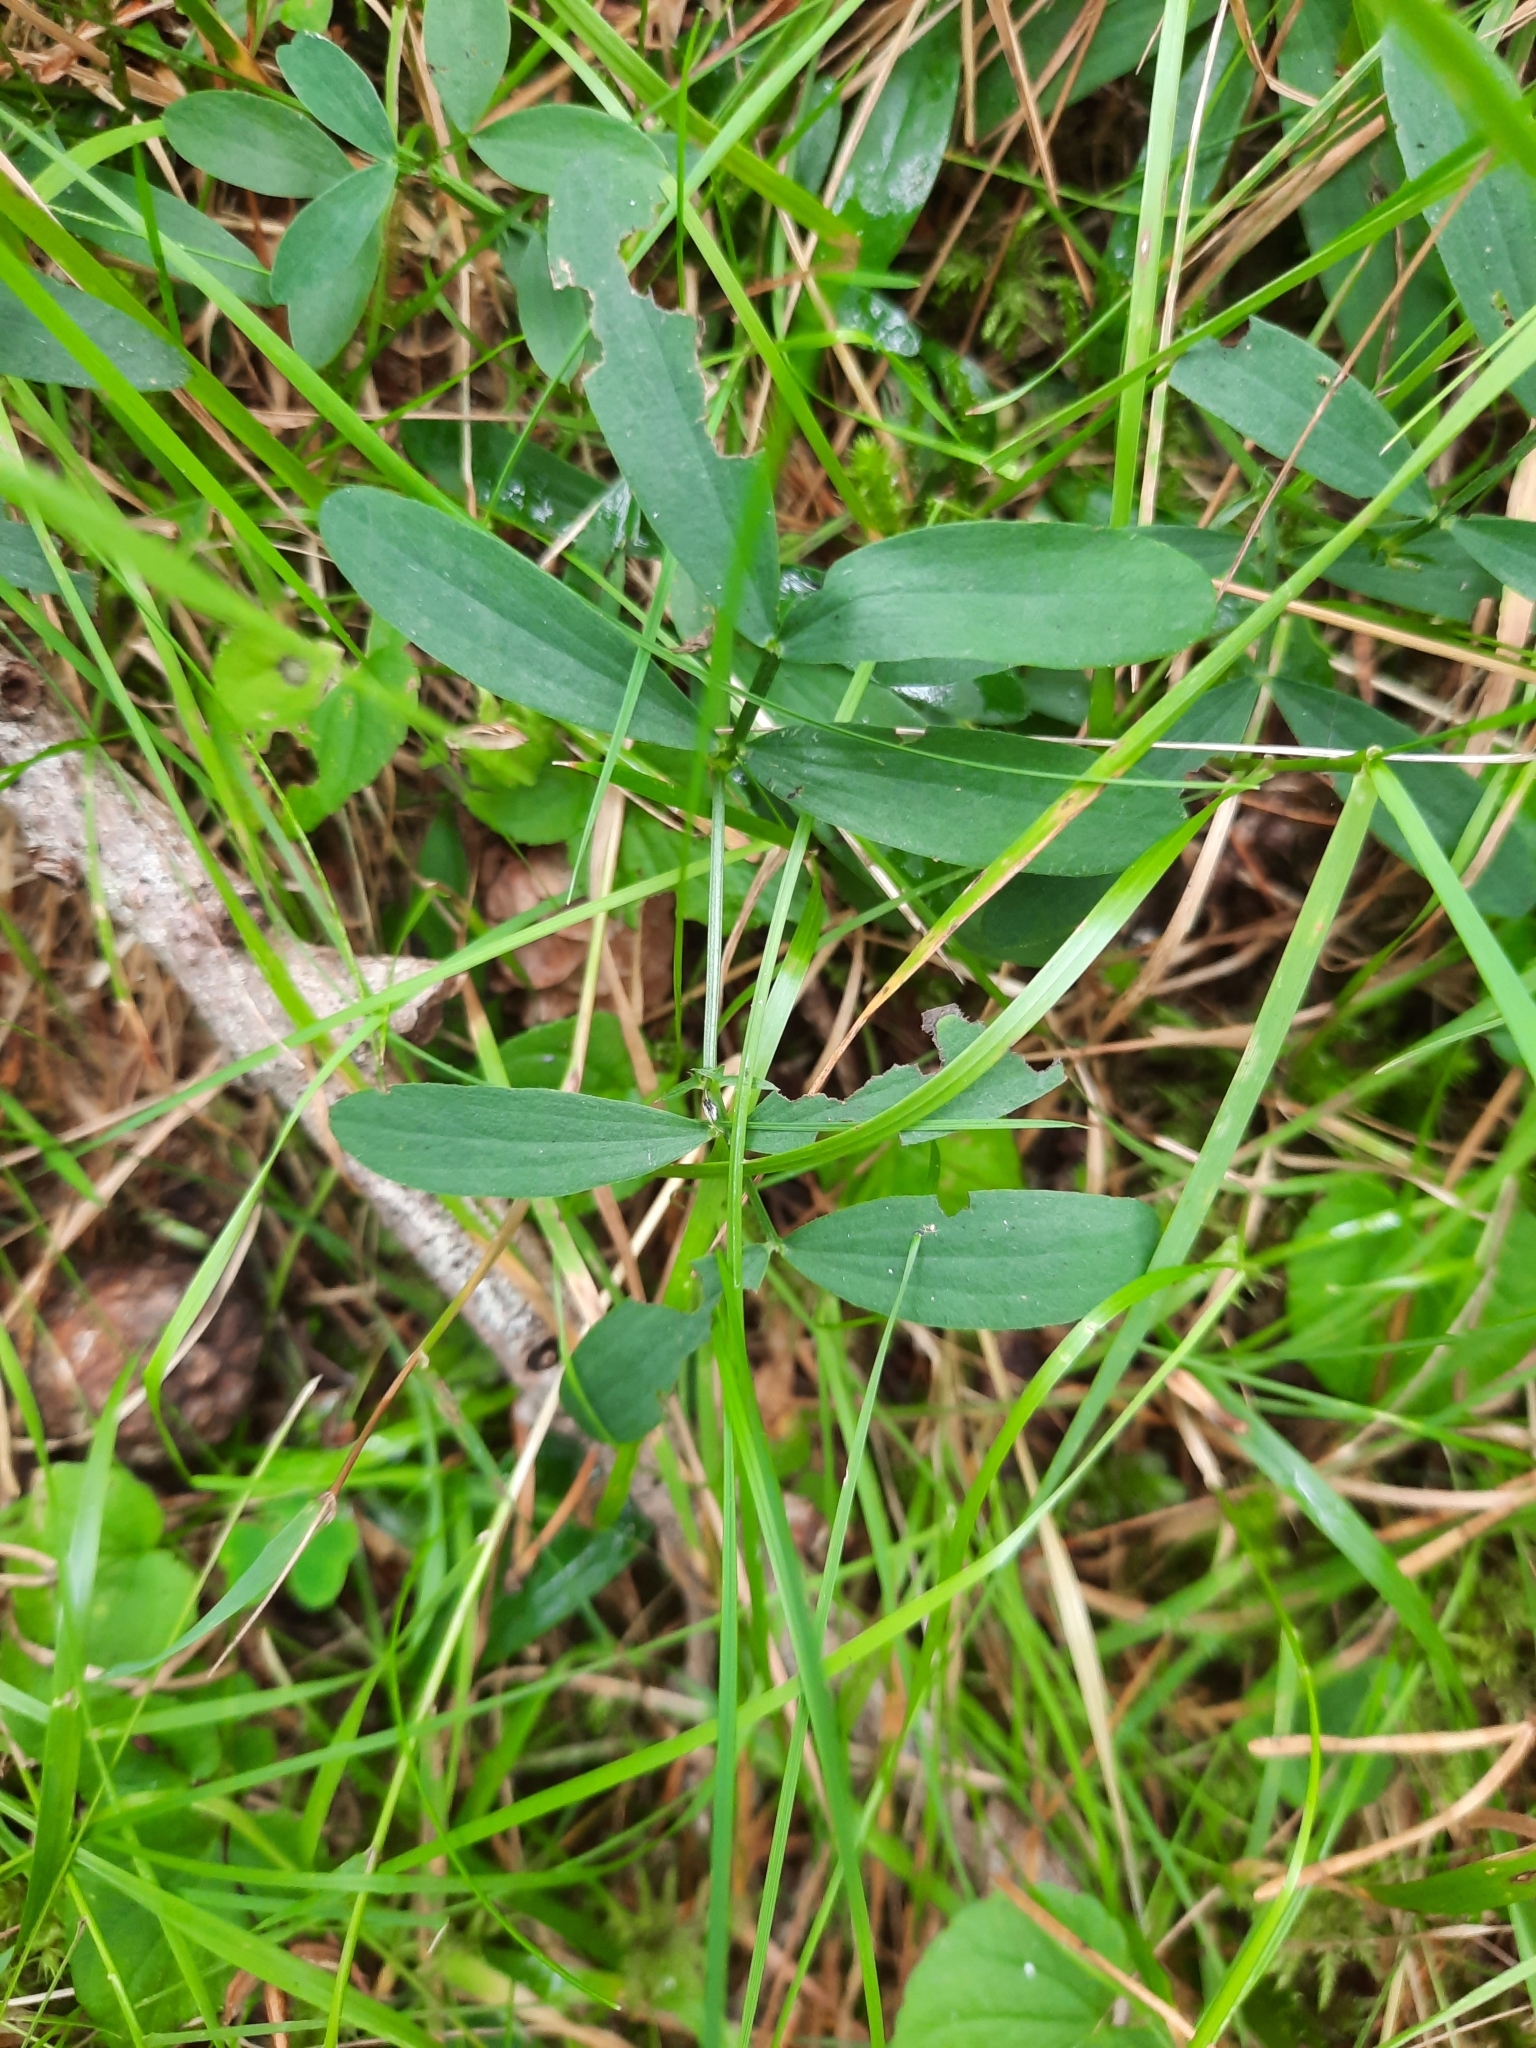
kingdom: Plantae
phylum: Tracheophyta
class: Magnoliopsida
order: Fabales
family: Fabaceae
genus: Lathyrus
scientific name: Lathyrus linifolius
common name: Bitter-vetch
